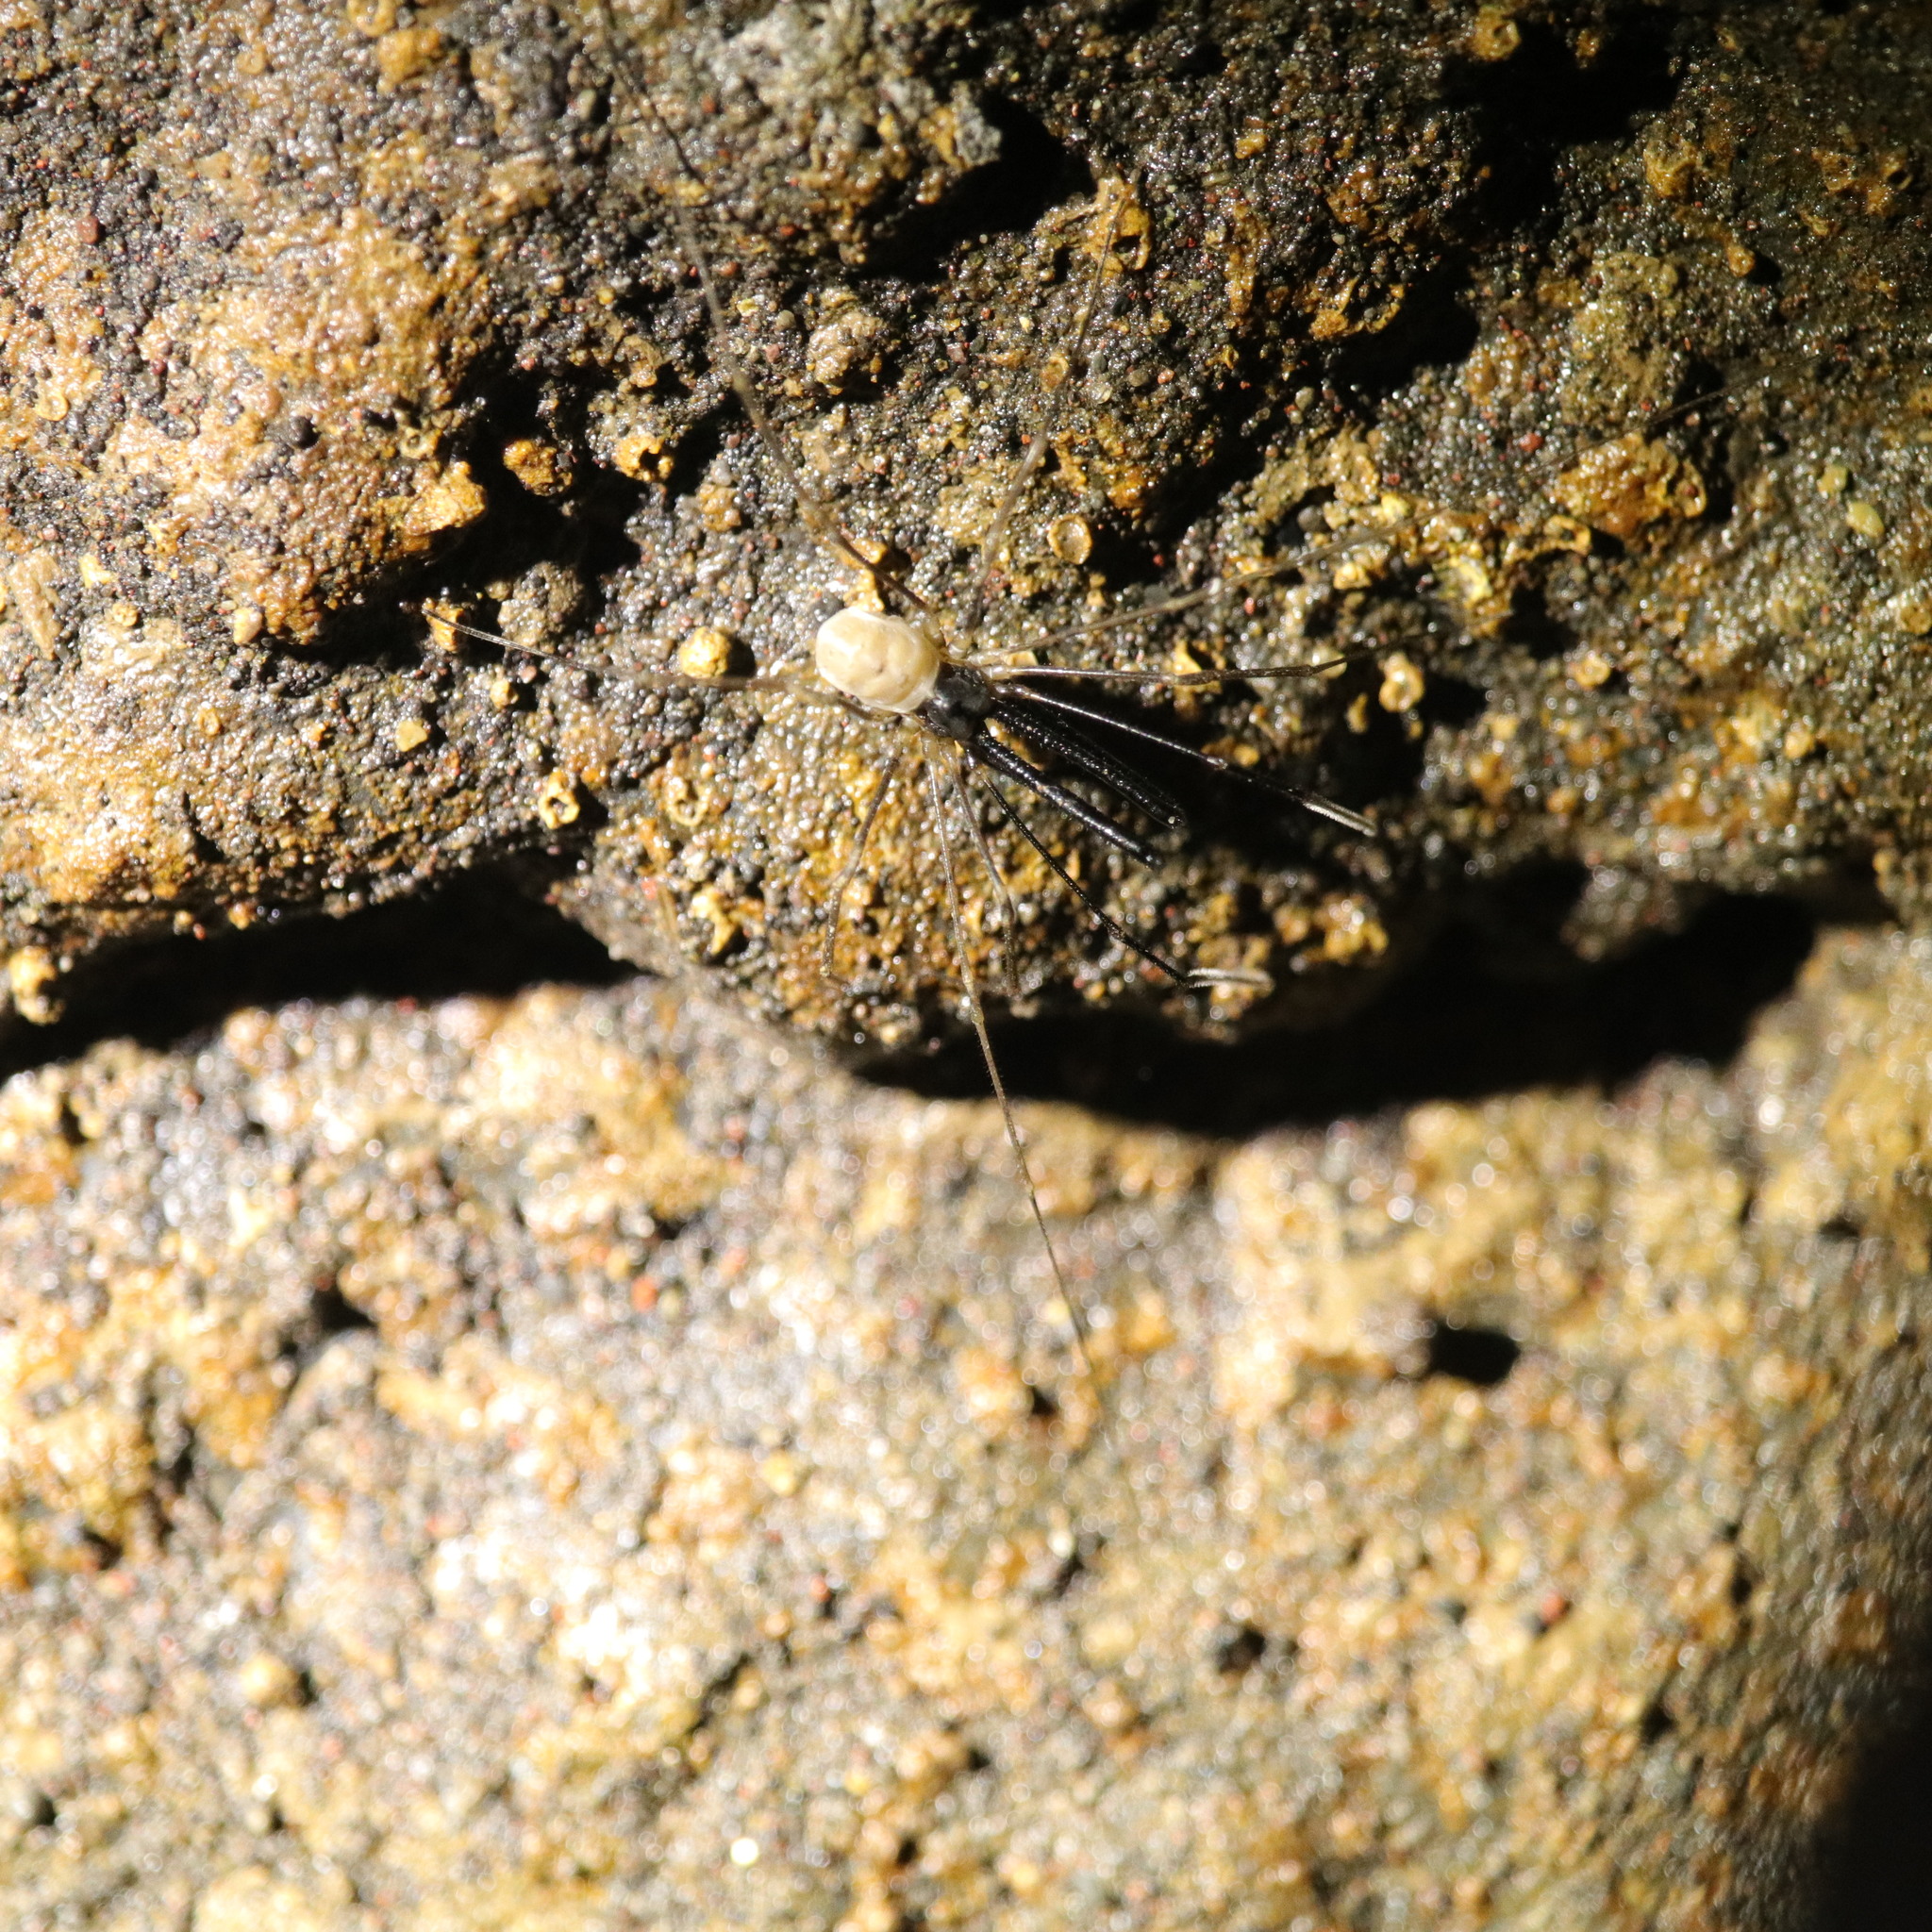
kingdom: Animalia
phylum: Arthropoda
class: Arachnida
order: Opiliones
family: Taracidae
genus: Taracus
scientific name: Taracus marchingtoni
